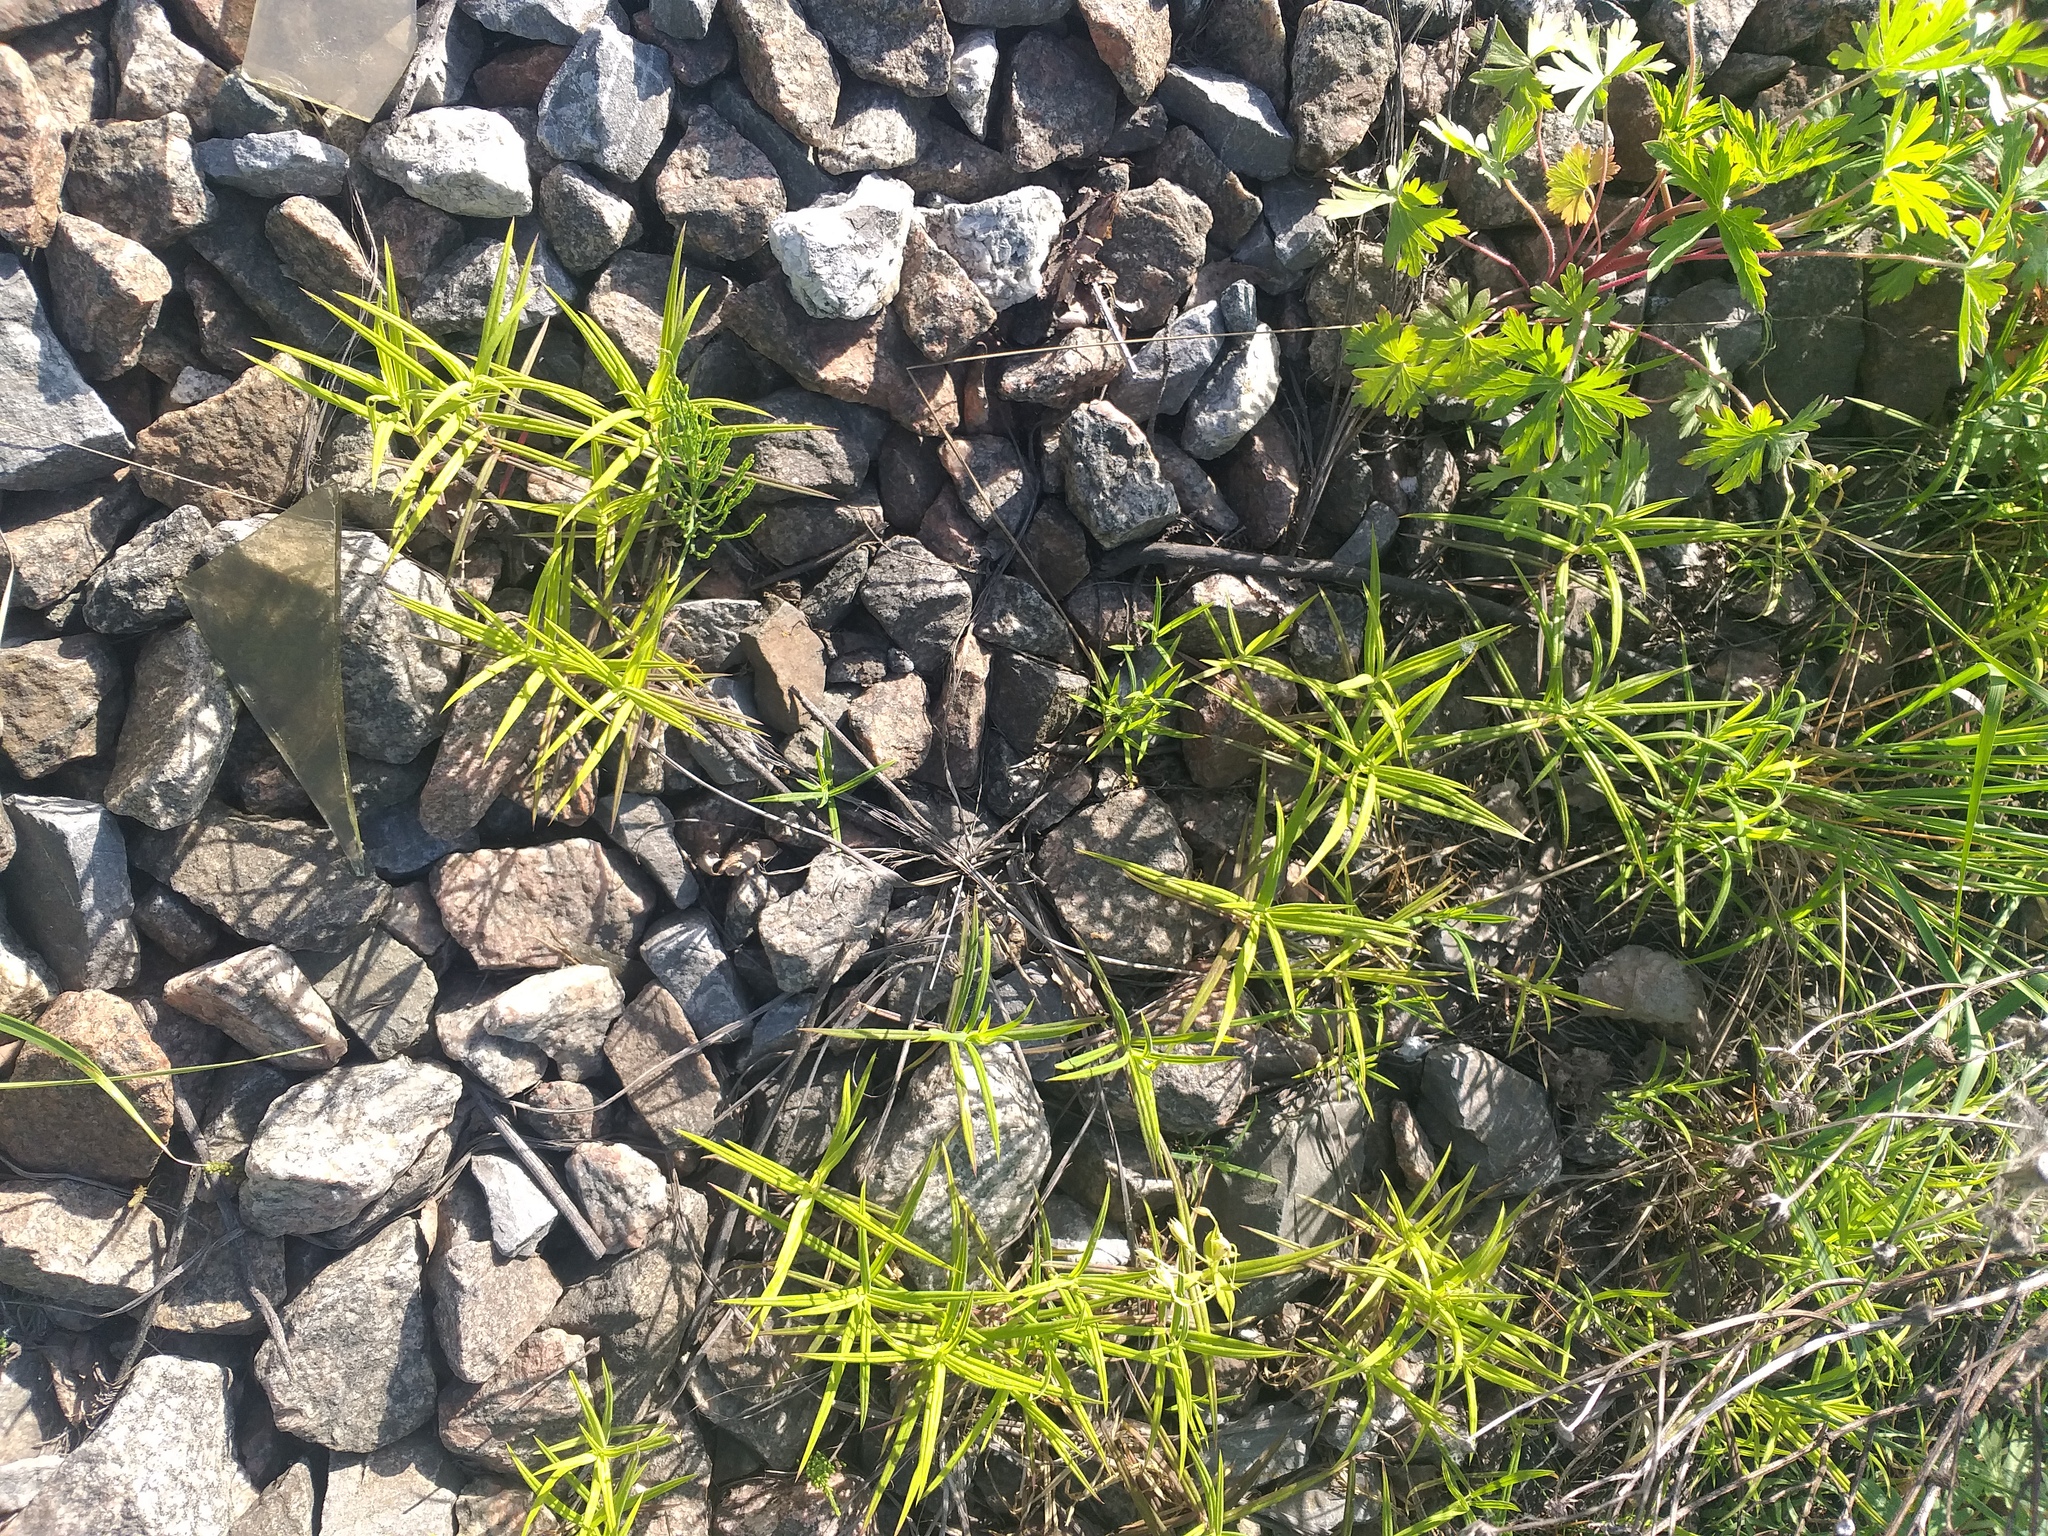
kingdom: Plantae
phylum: Tracheophyta
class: Magnoliopsida
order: Caryophyllales
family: Caryophyllaceae
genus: Rabelera
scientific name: Rabelera holostea
